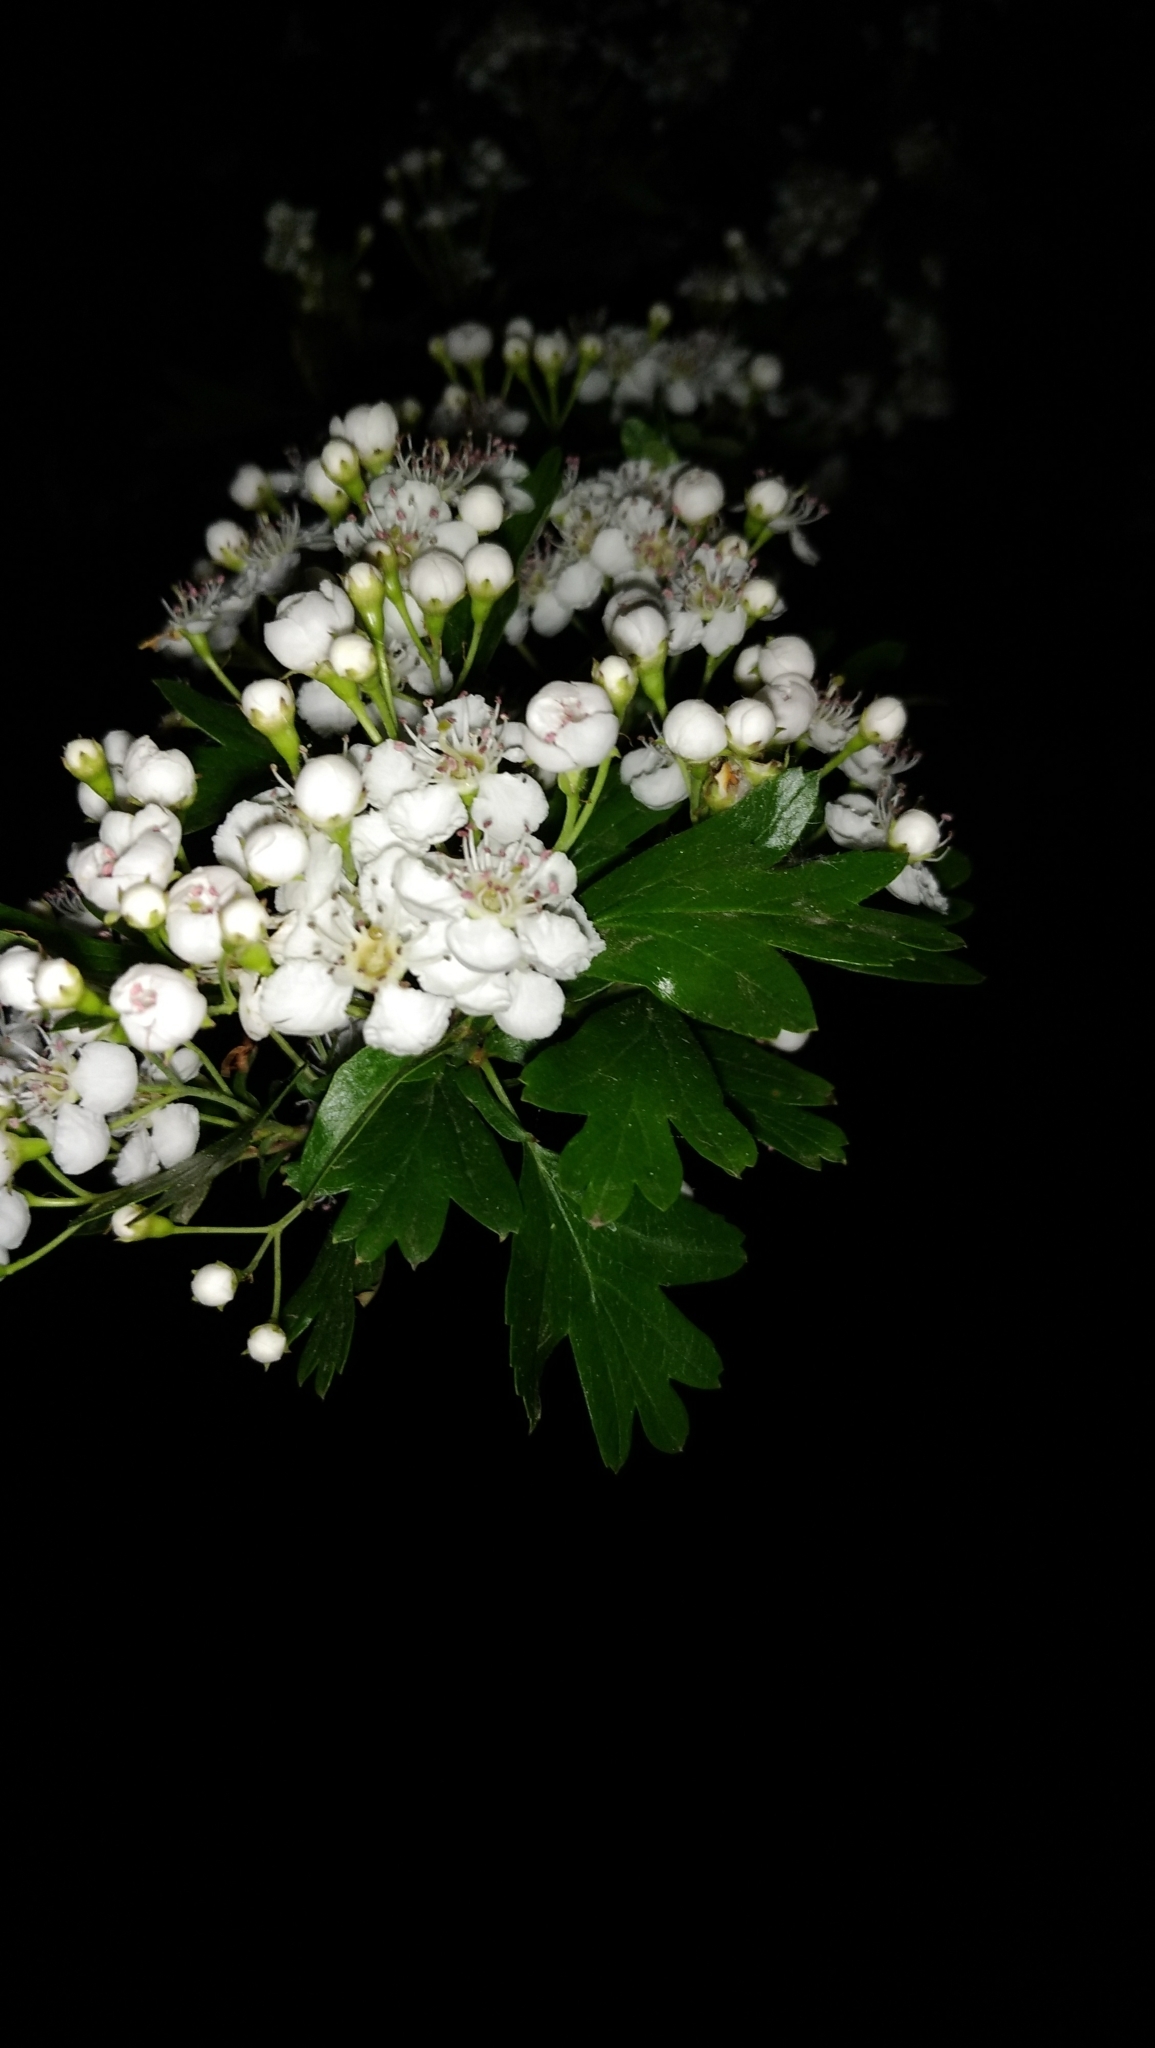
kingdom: Plantae
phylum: Tracheophyta
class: Magnoliopsida
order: Rosales
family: Rosaceae
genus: Crataegus
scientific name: Crataegus monogyna
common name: Hawthorn
